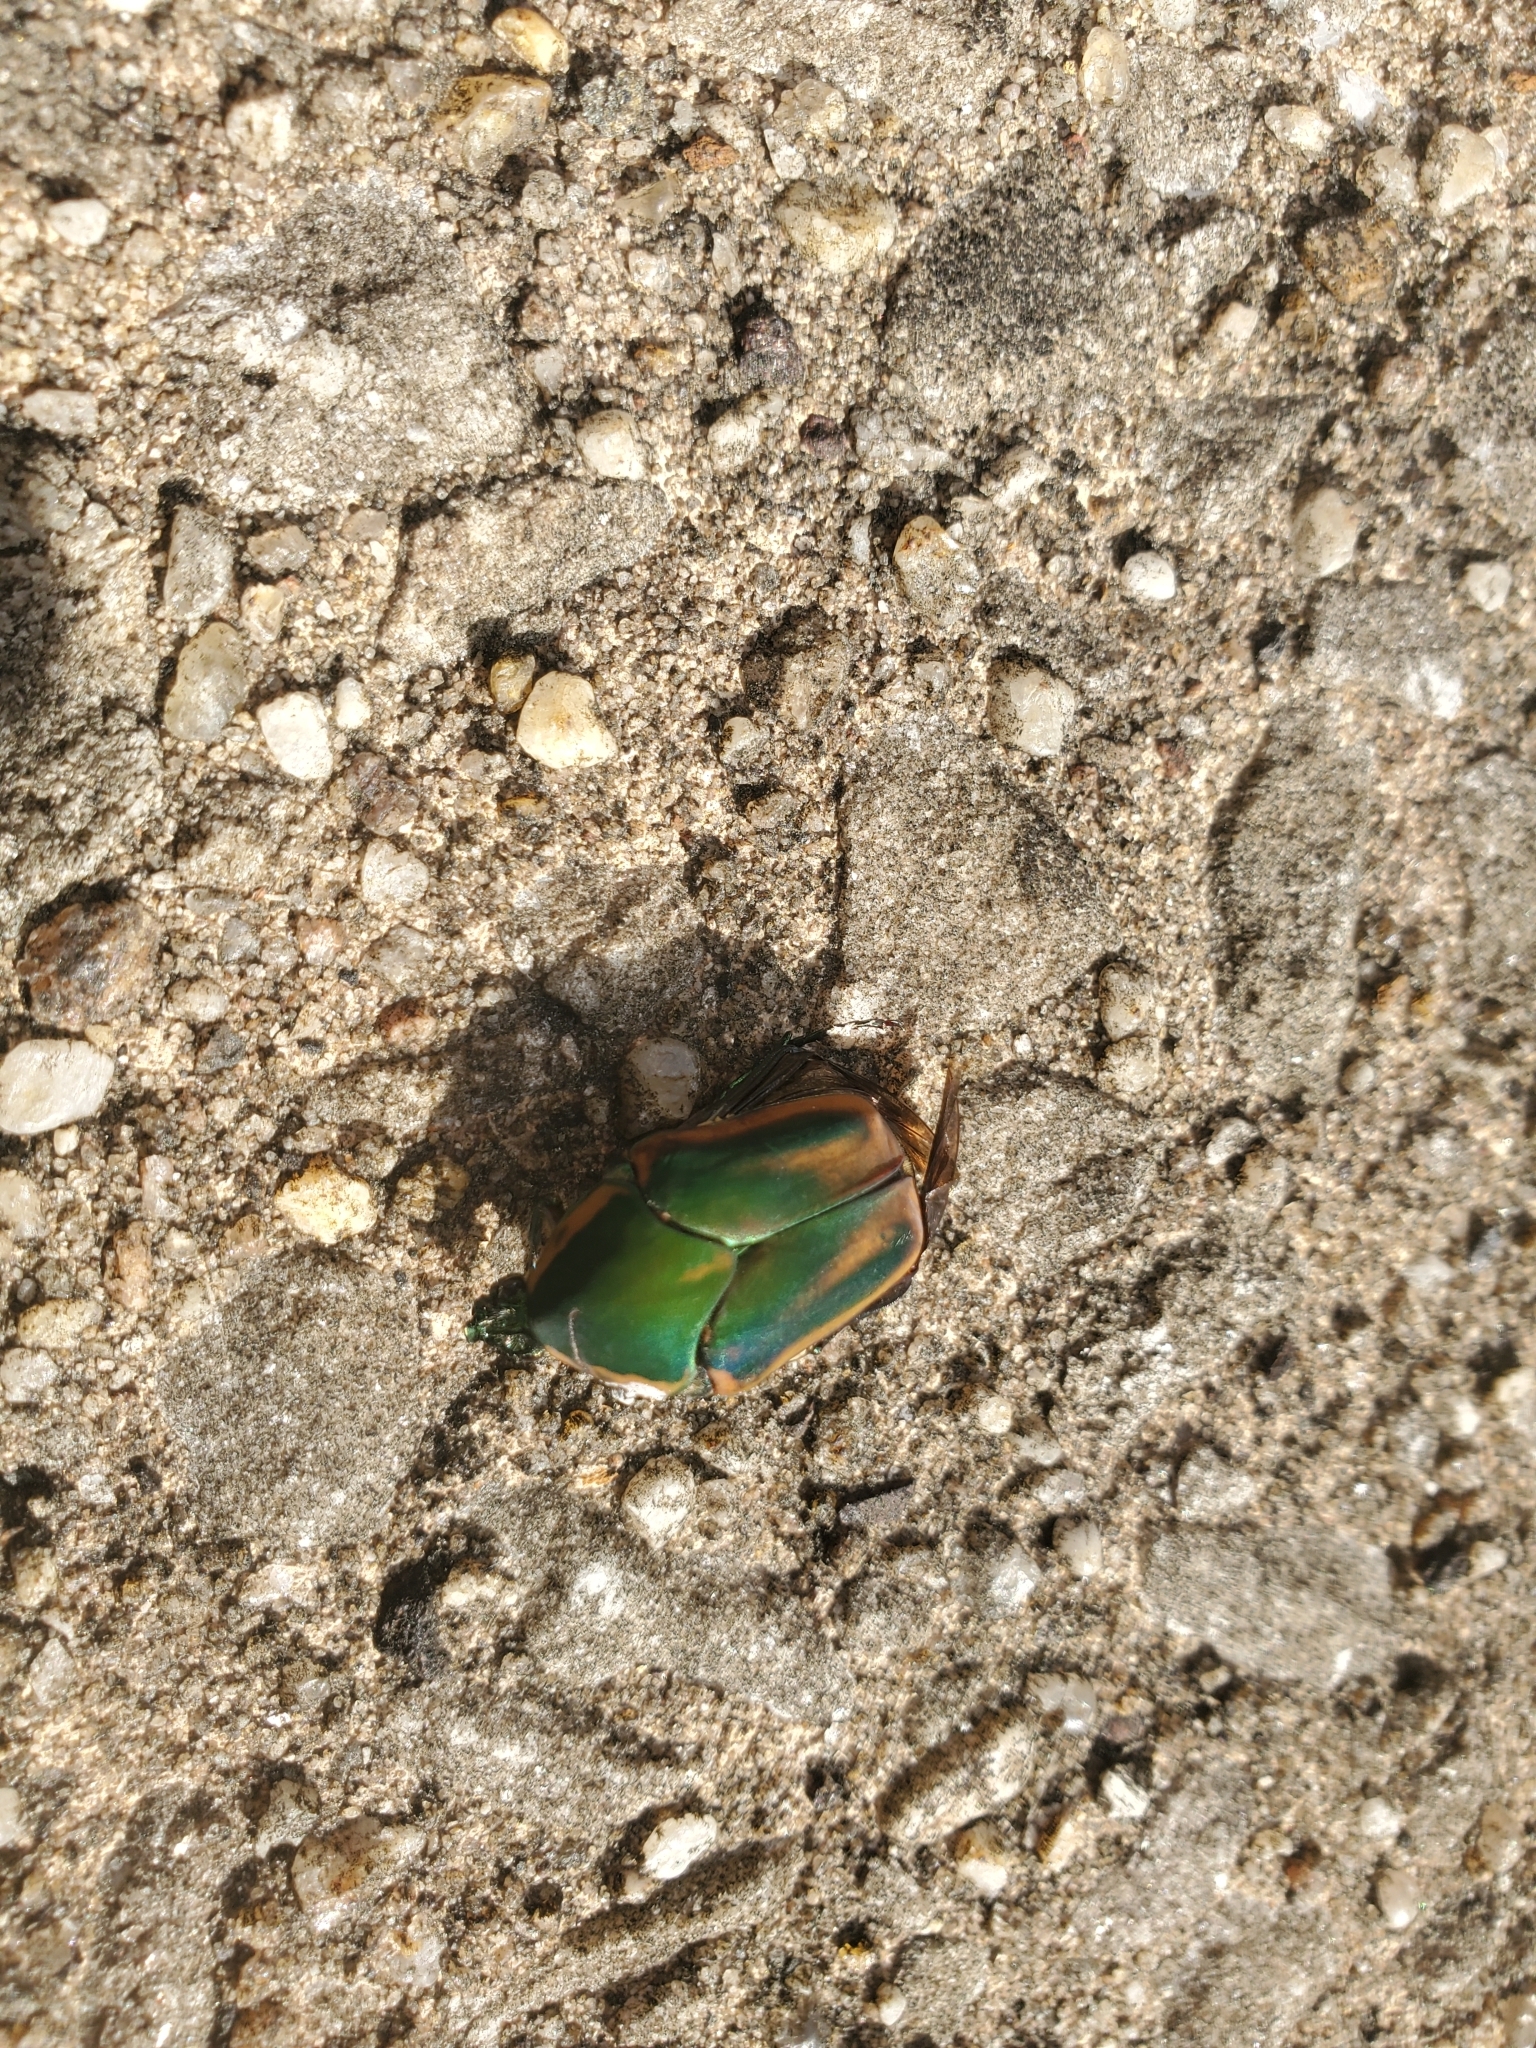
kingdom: Animalia
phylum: Arthropoda
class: Insecta
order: Coleoptera
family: Scarabaeidae
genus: Cotinis
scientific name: Cotinis nitida
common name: Common green june beetle
